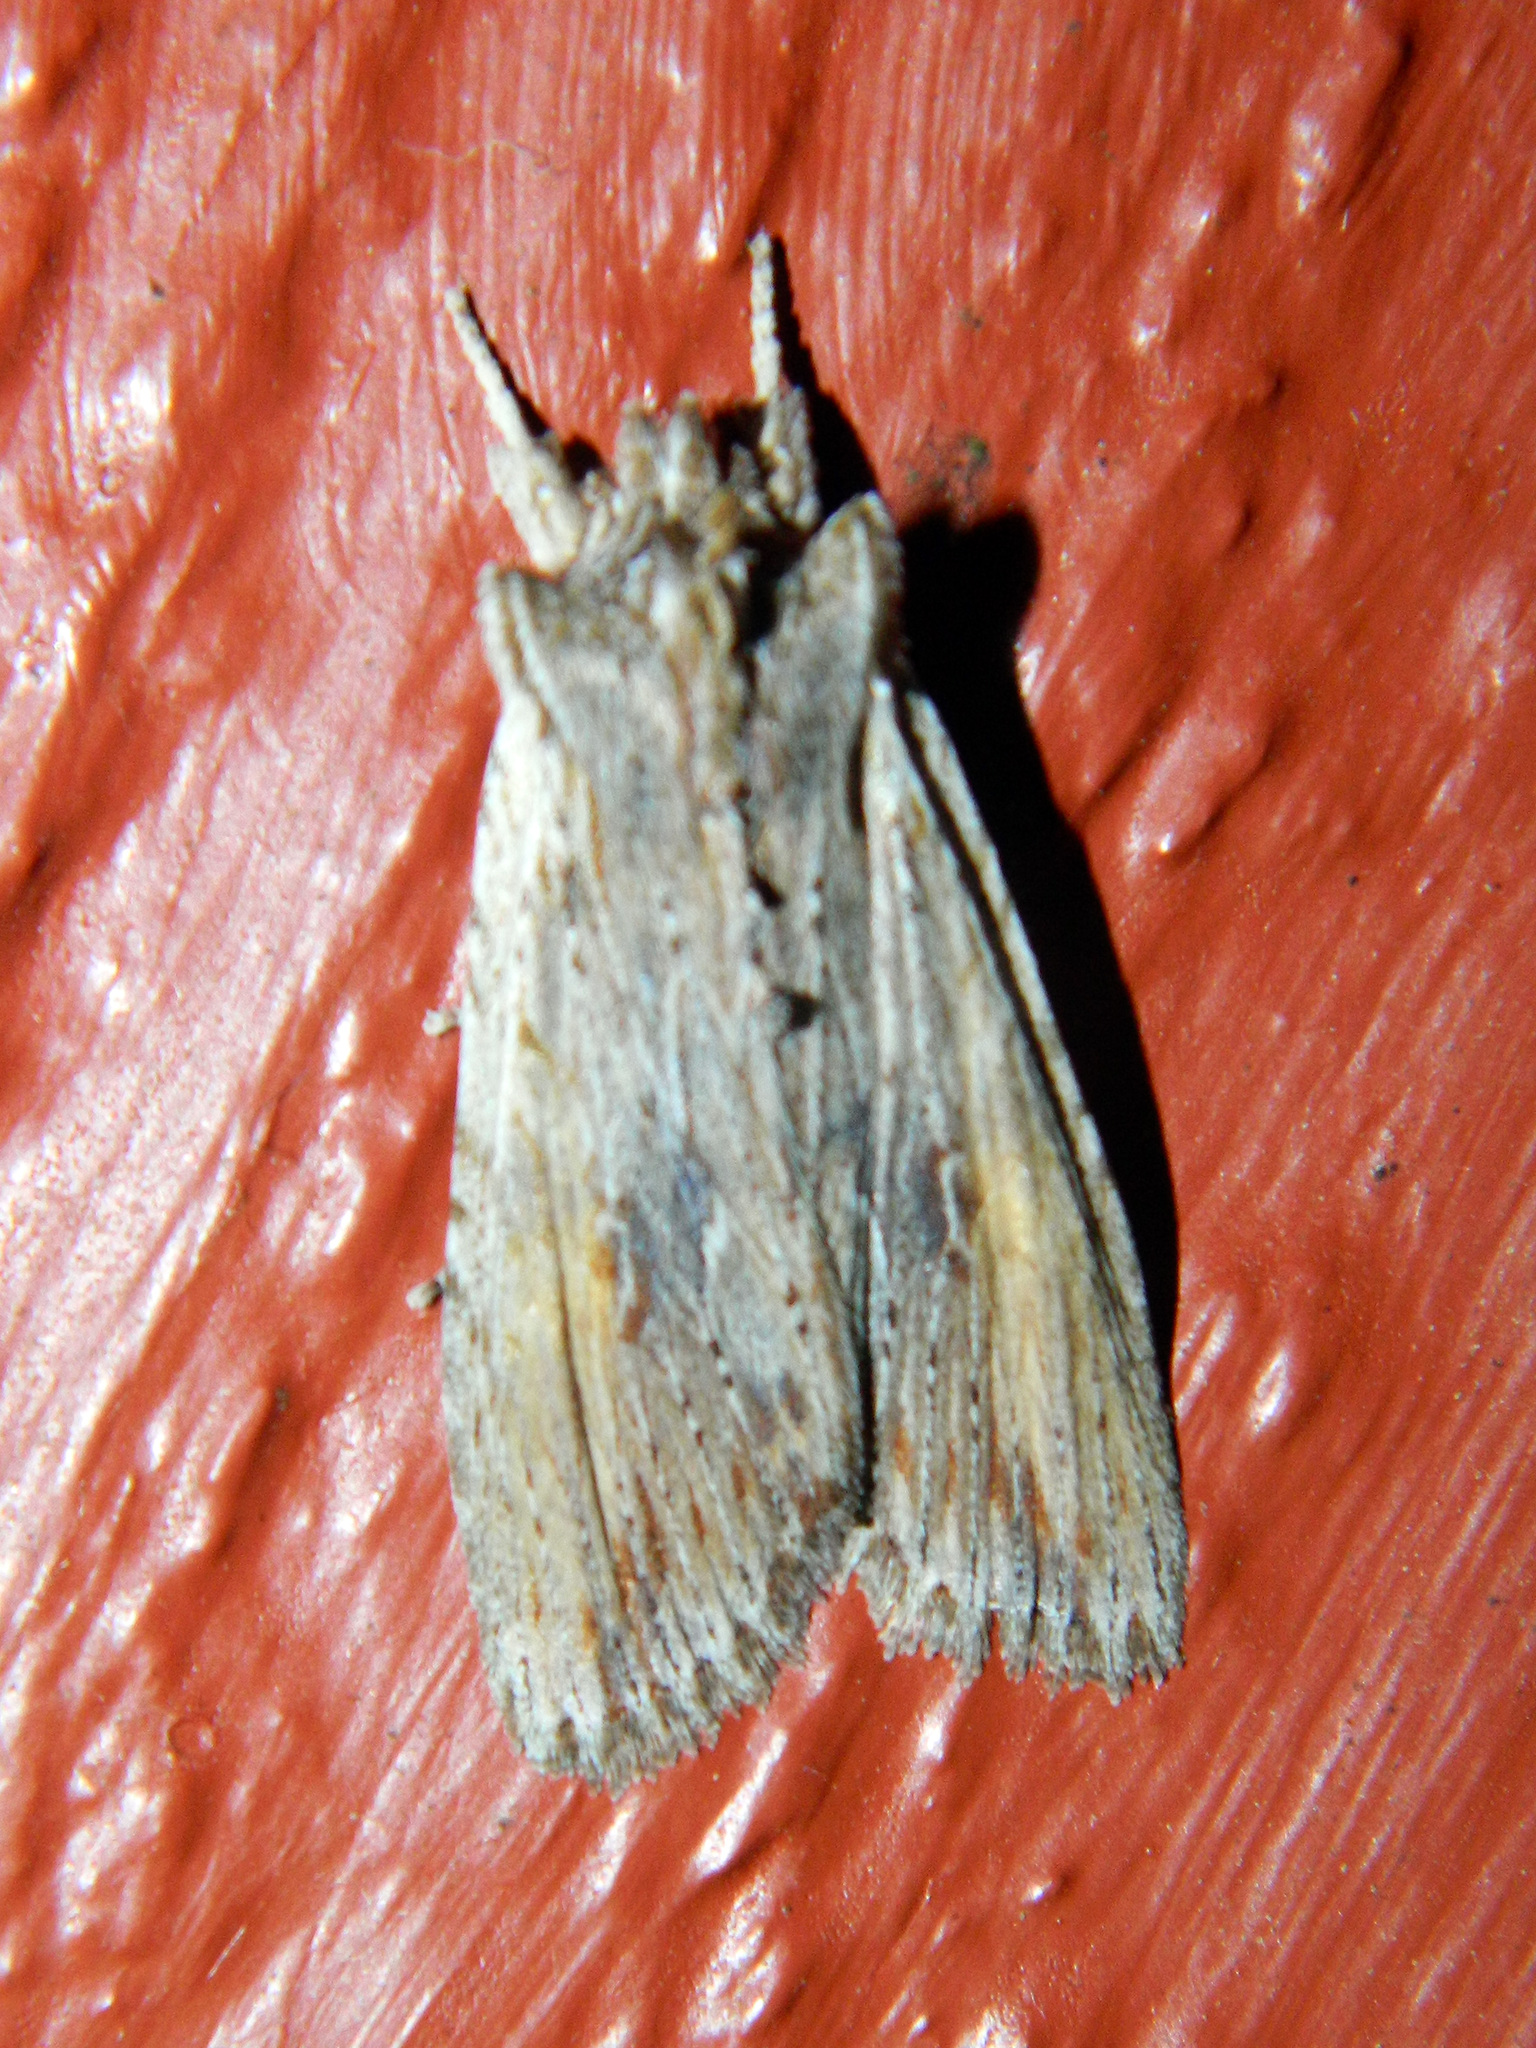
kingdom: Animalia
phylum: Arthropoda
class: Insecta
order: Lepidoptera
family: Noctuidae
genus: Lithophane
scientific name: Lithophane amanda
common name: Amanda's pinion moth
